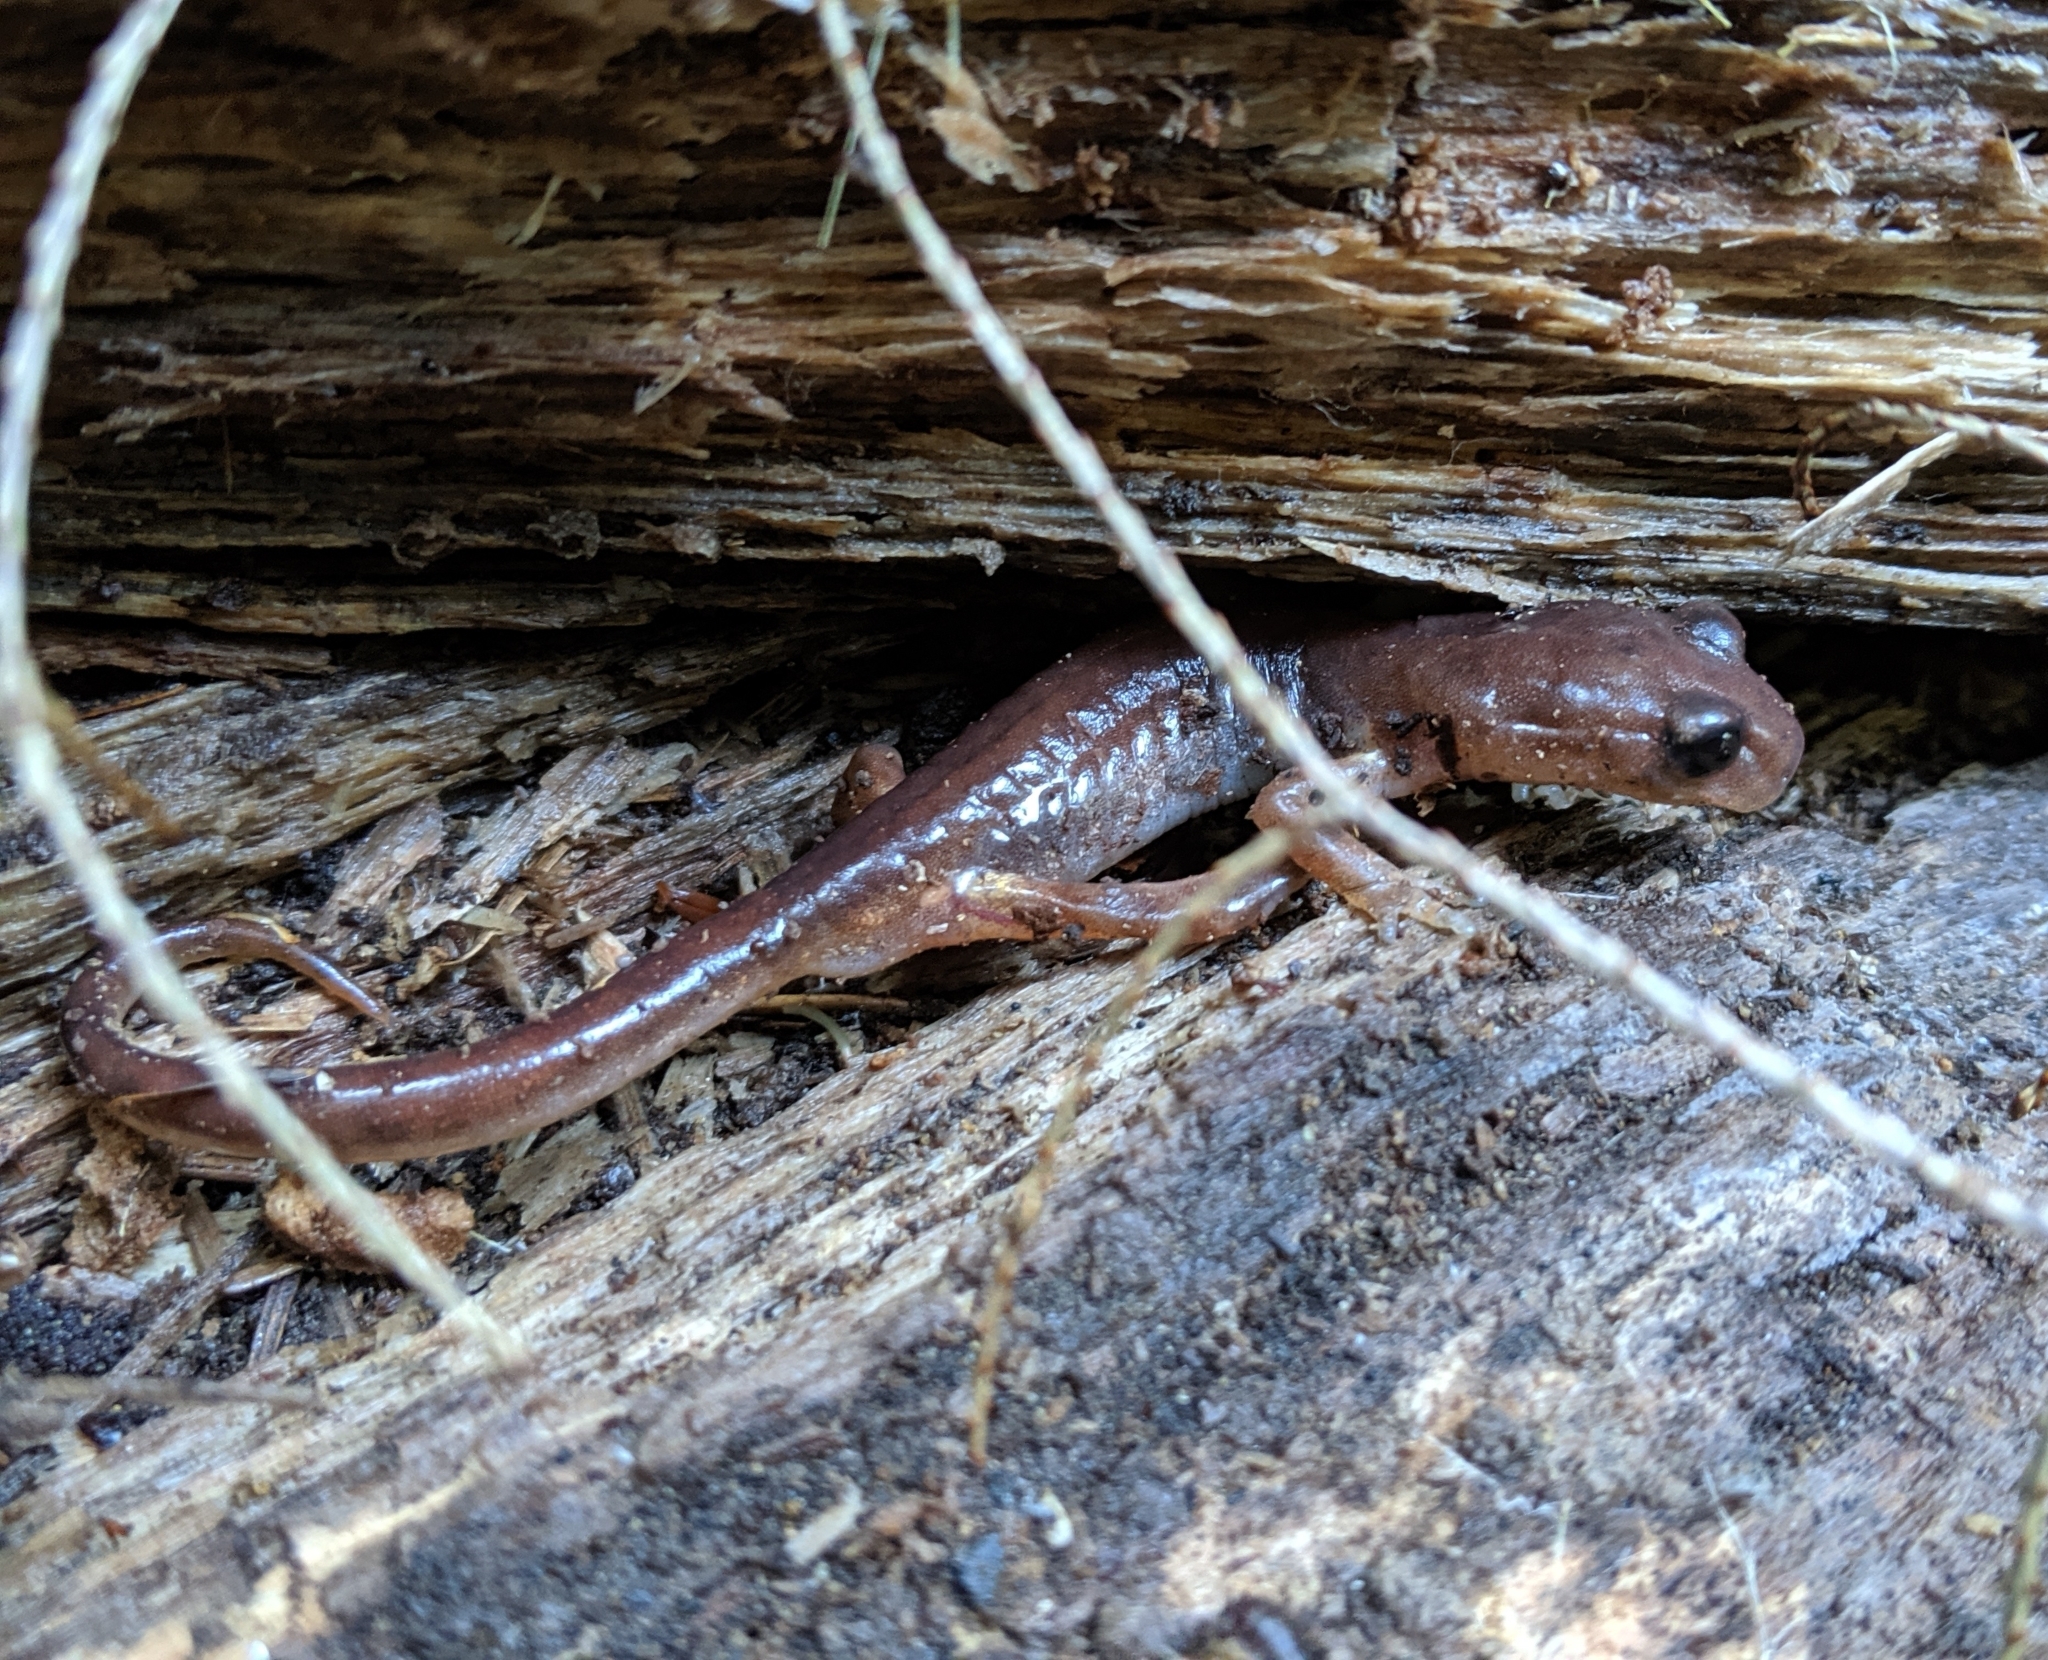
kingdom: Animalia
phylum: Chordata
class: Amphibia
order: Caudata
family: Plethodontidae
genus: Ensatina
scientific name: Ensatina eschscholtzii
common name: Ensatina
